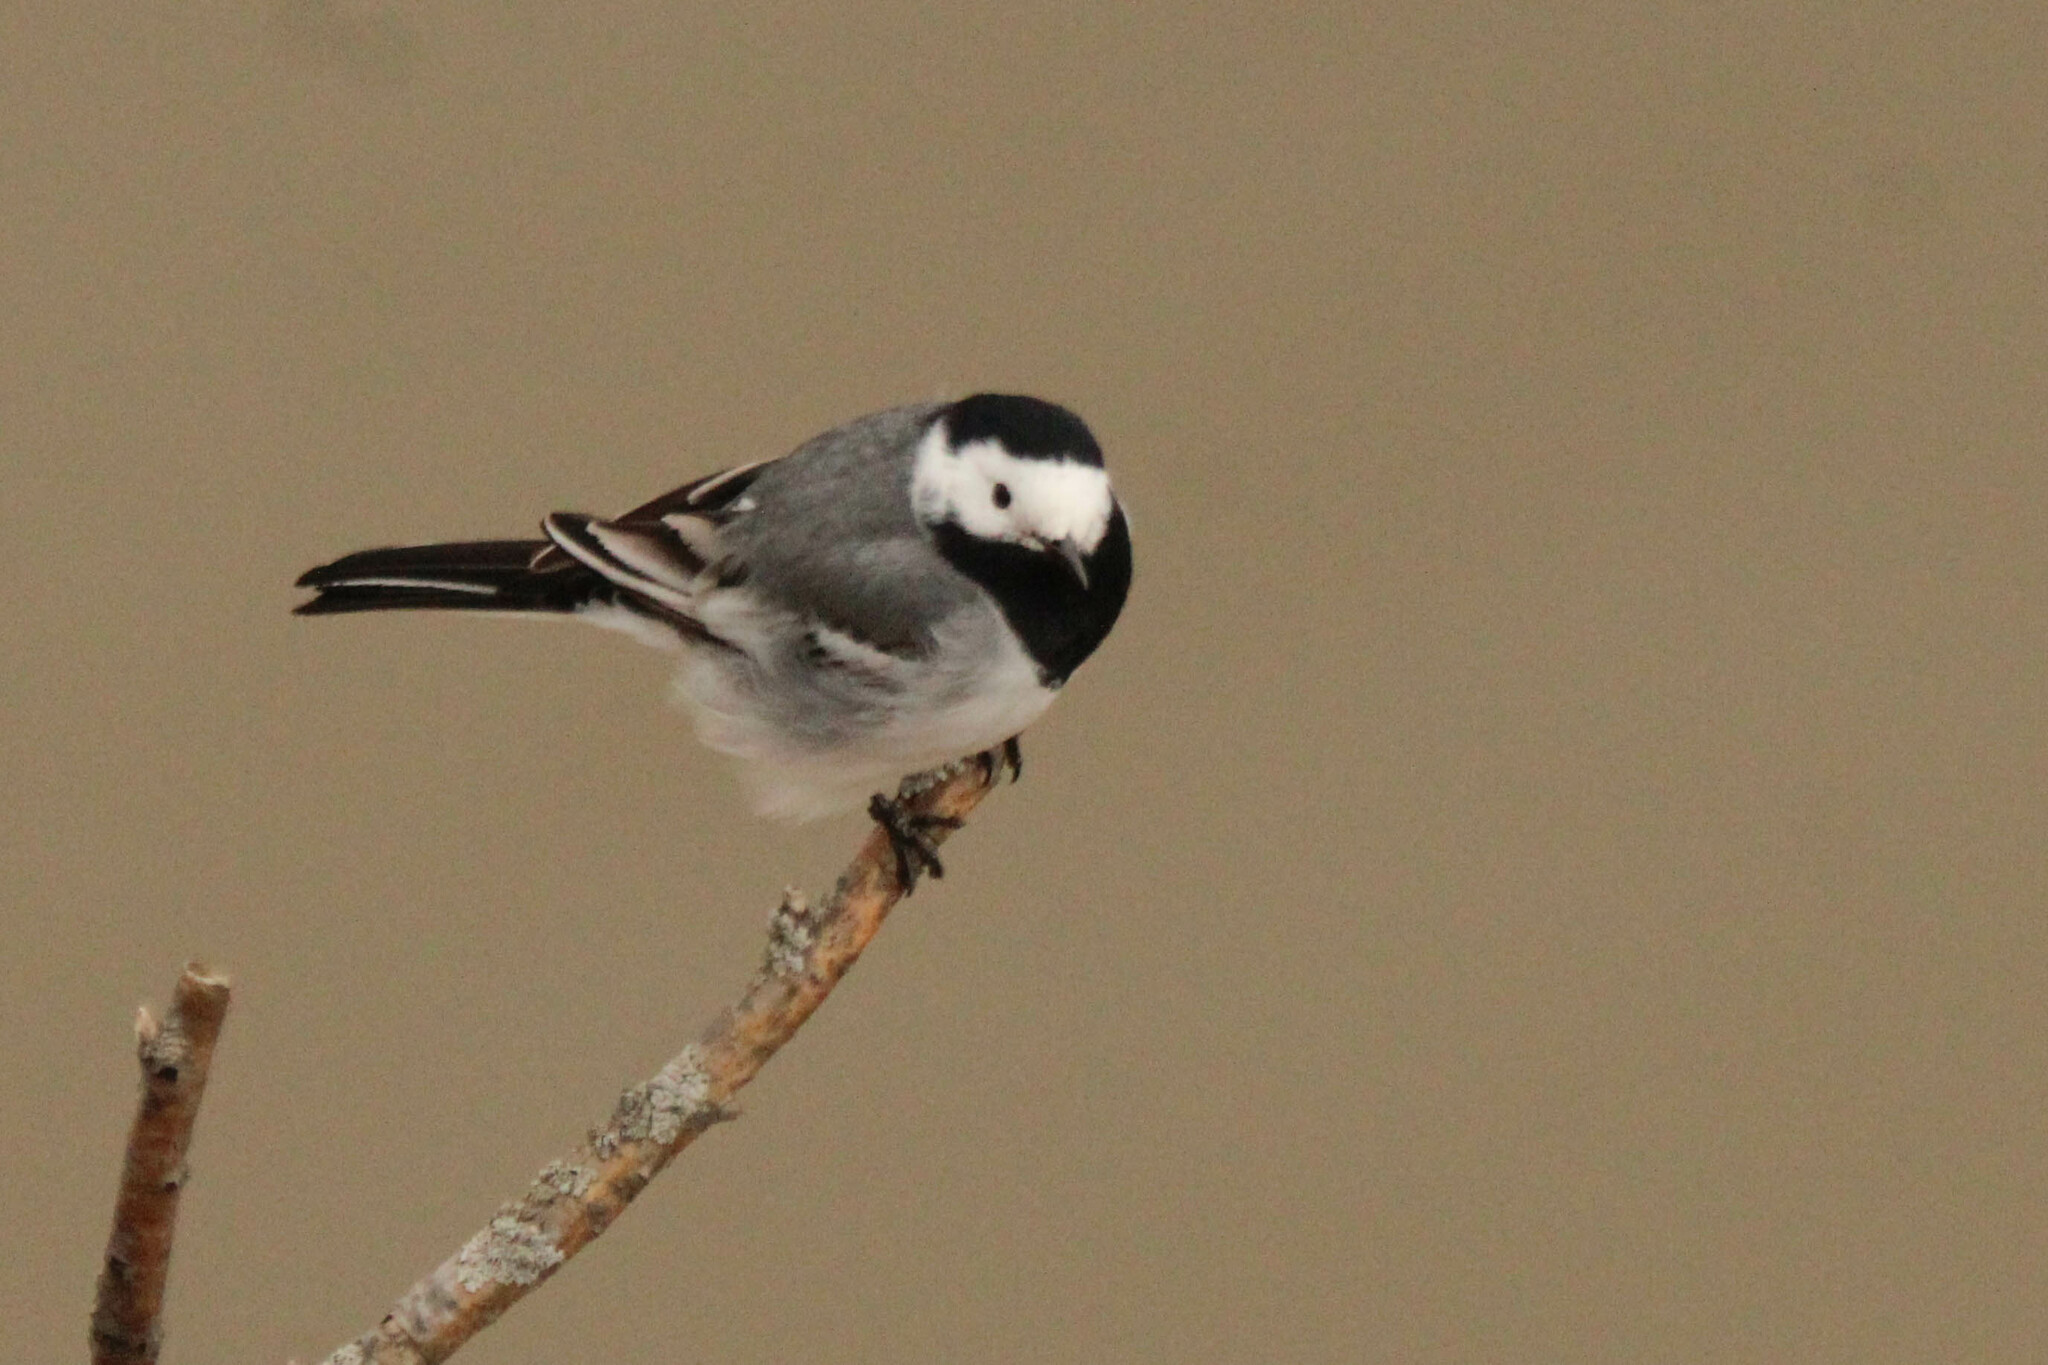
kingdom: Animalia
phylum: Chordata
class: Aves
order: Passeriformes
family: Motacillidae
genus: Motacilla
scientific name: Motacilla alba
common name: White wagtail
